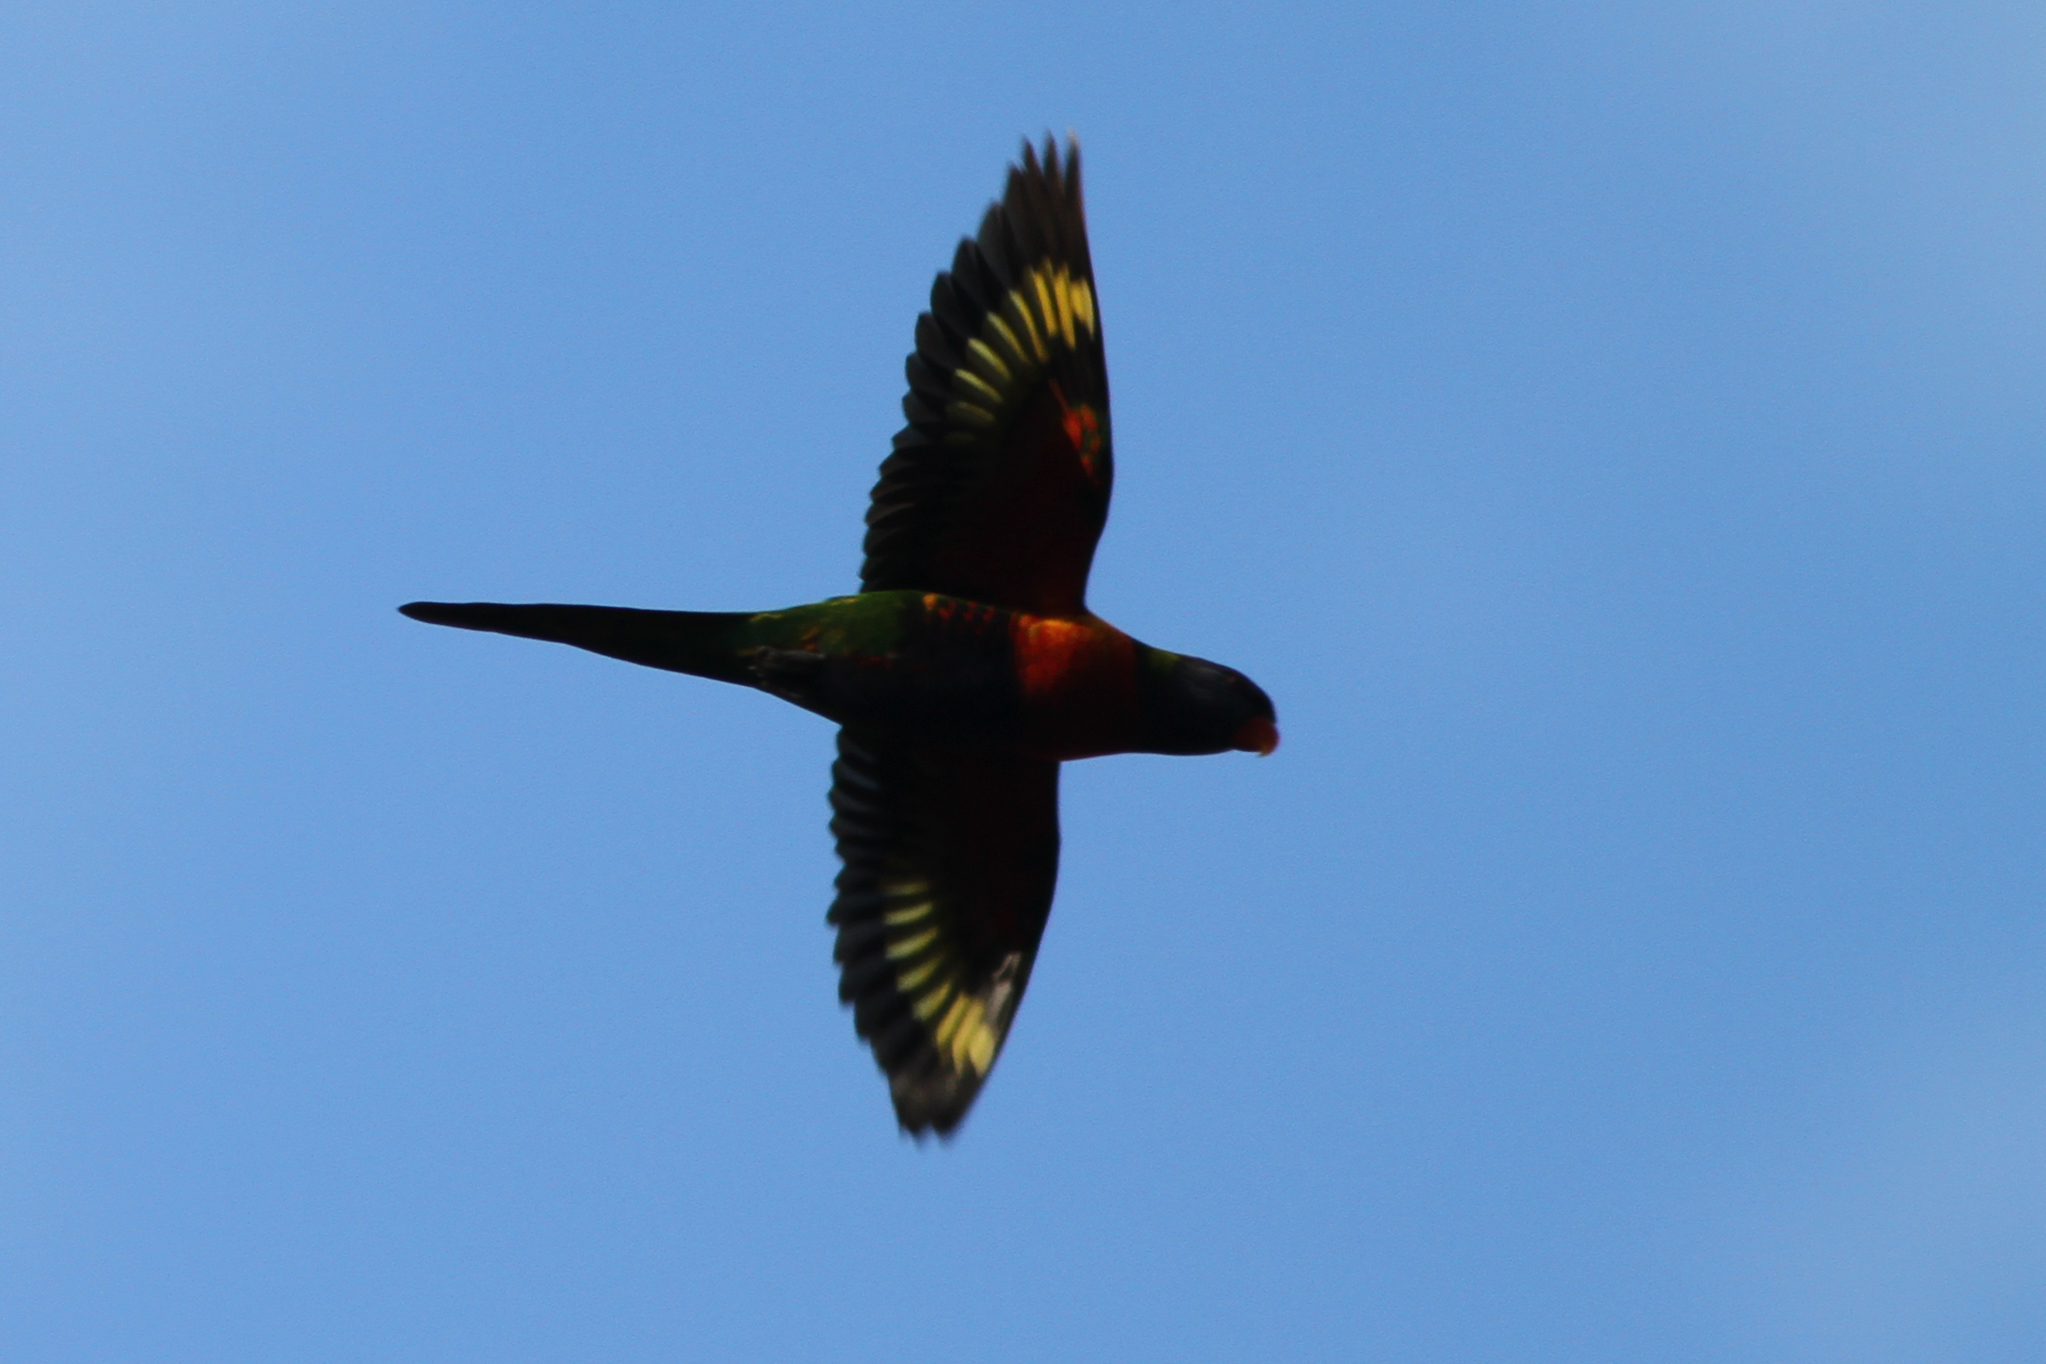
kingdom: Animalia
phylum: Chordata
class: Aves
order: Psittaciformes
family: Psittacidae
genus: Trichoglossus
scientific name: Trichoglossus haematodus
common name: Coconut lorikeet
